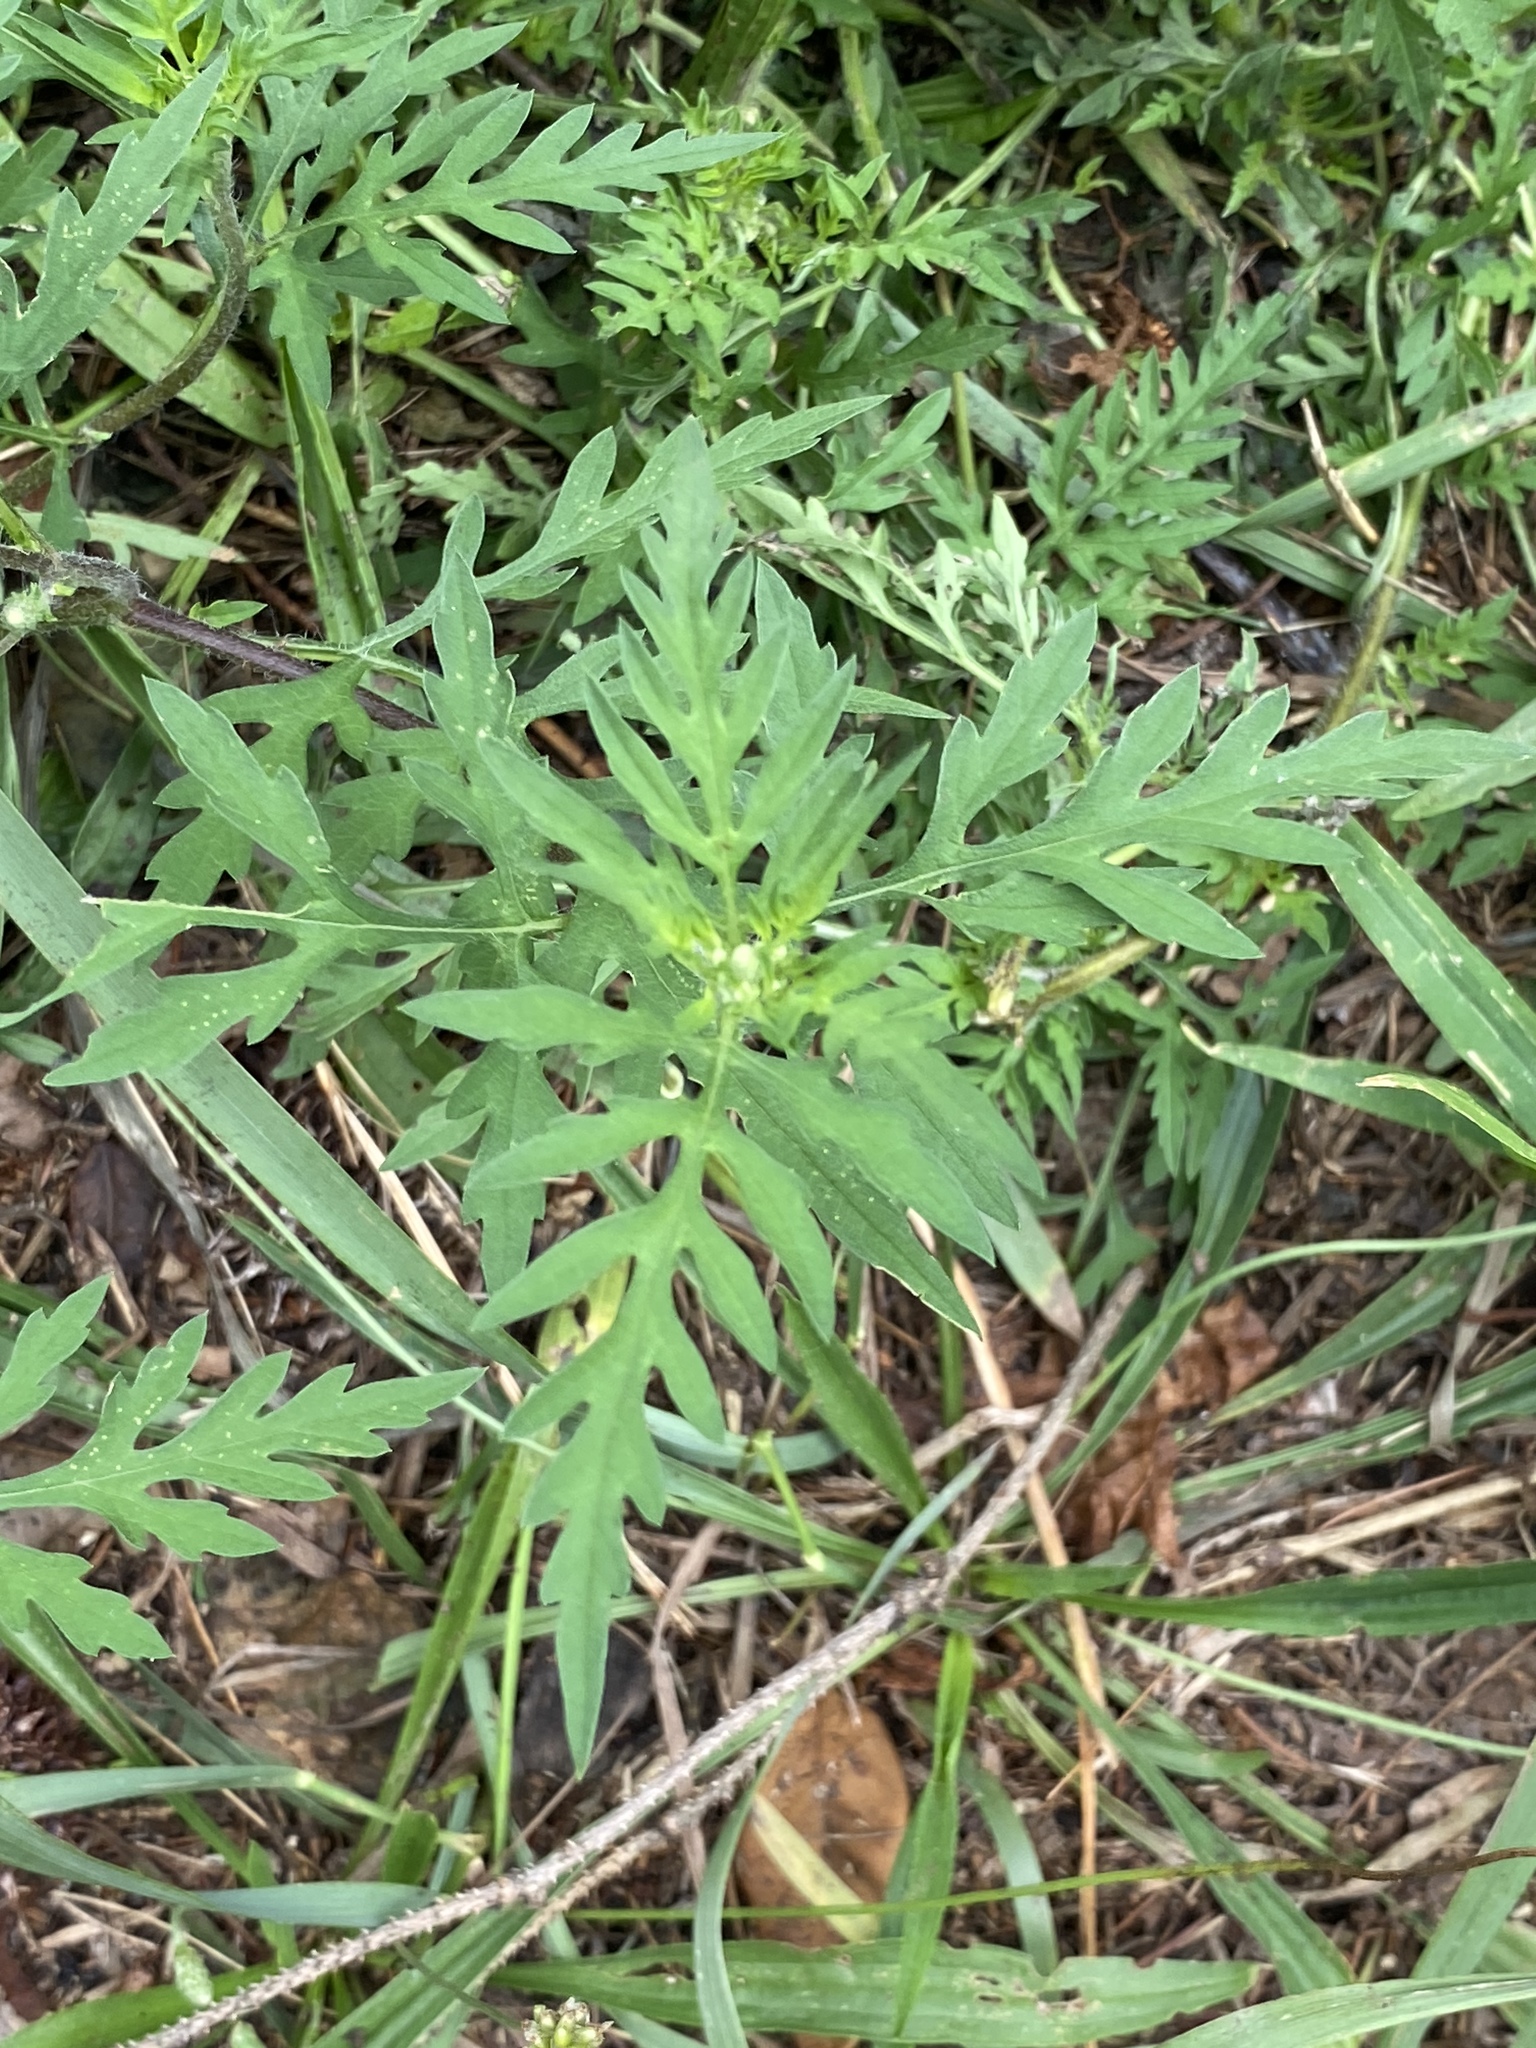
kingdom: Plantae
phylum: Tracheophyta
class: Magnoliopsida
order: Asterales
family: Asteraceae
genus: Ambrosia
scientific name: Ambrosia artemisiifolia
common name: Annual ragweed
